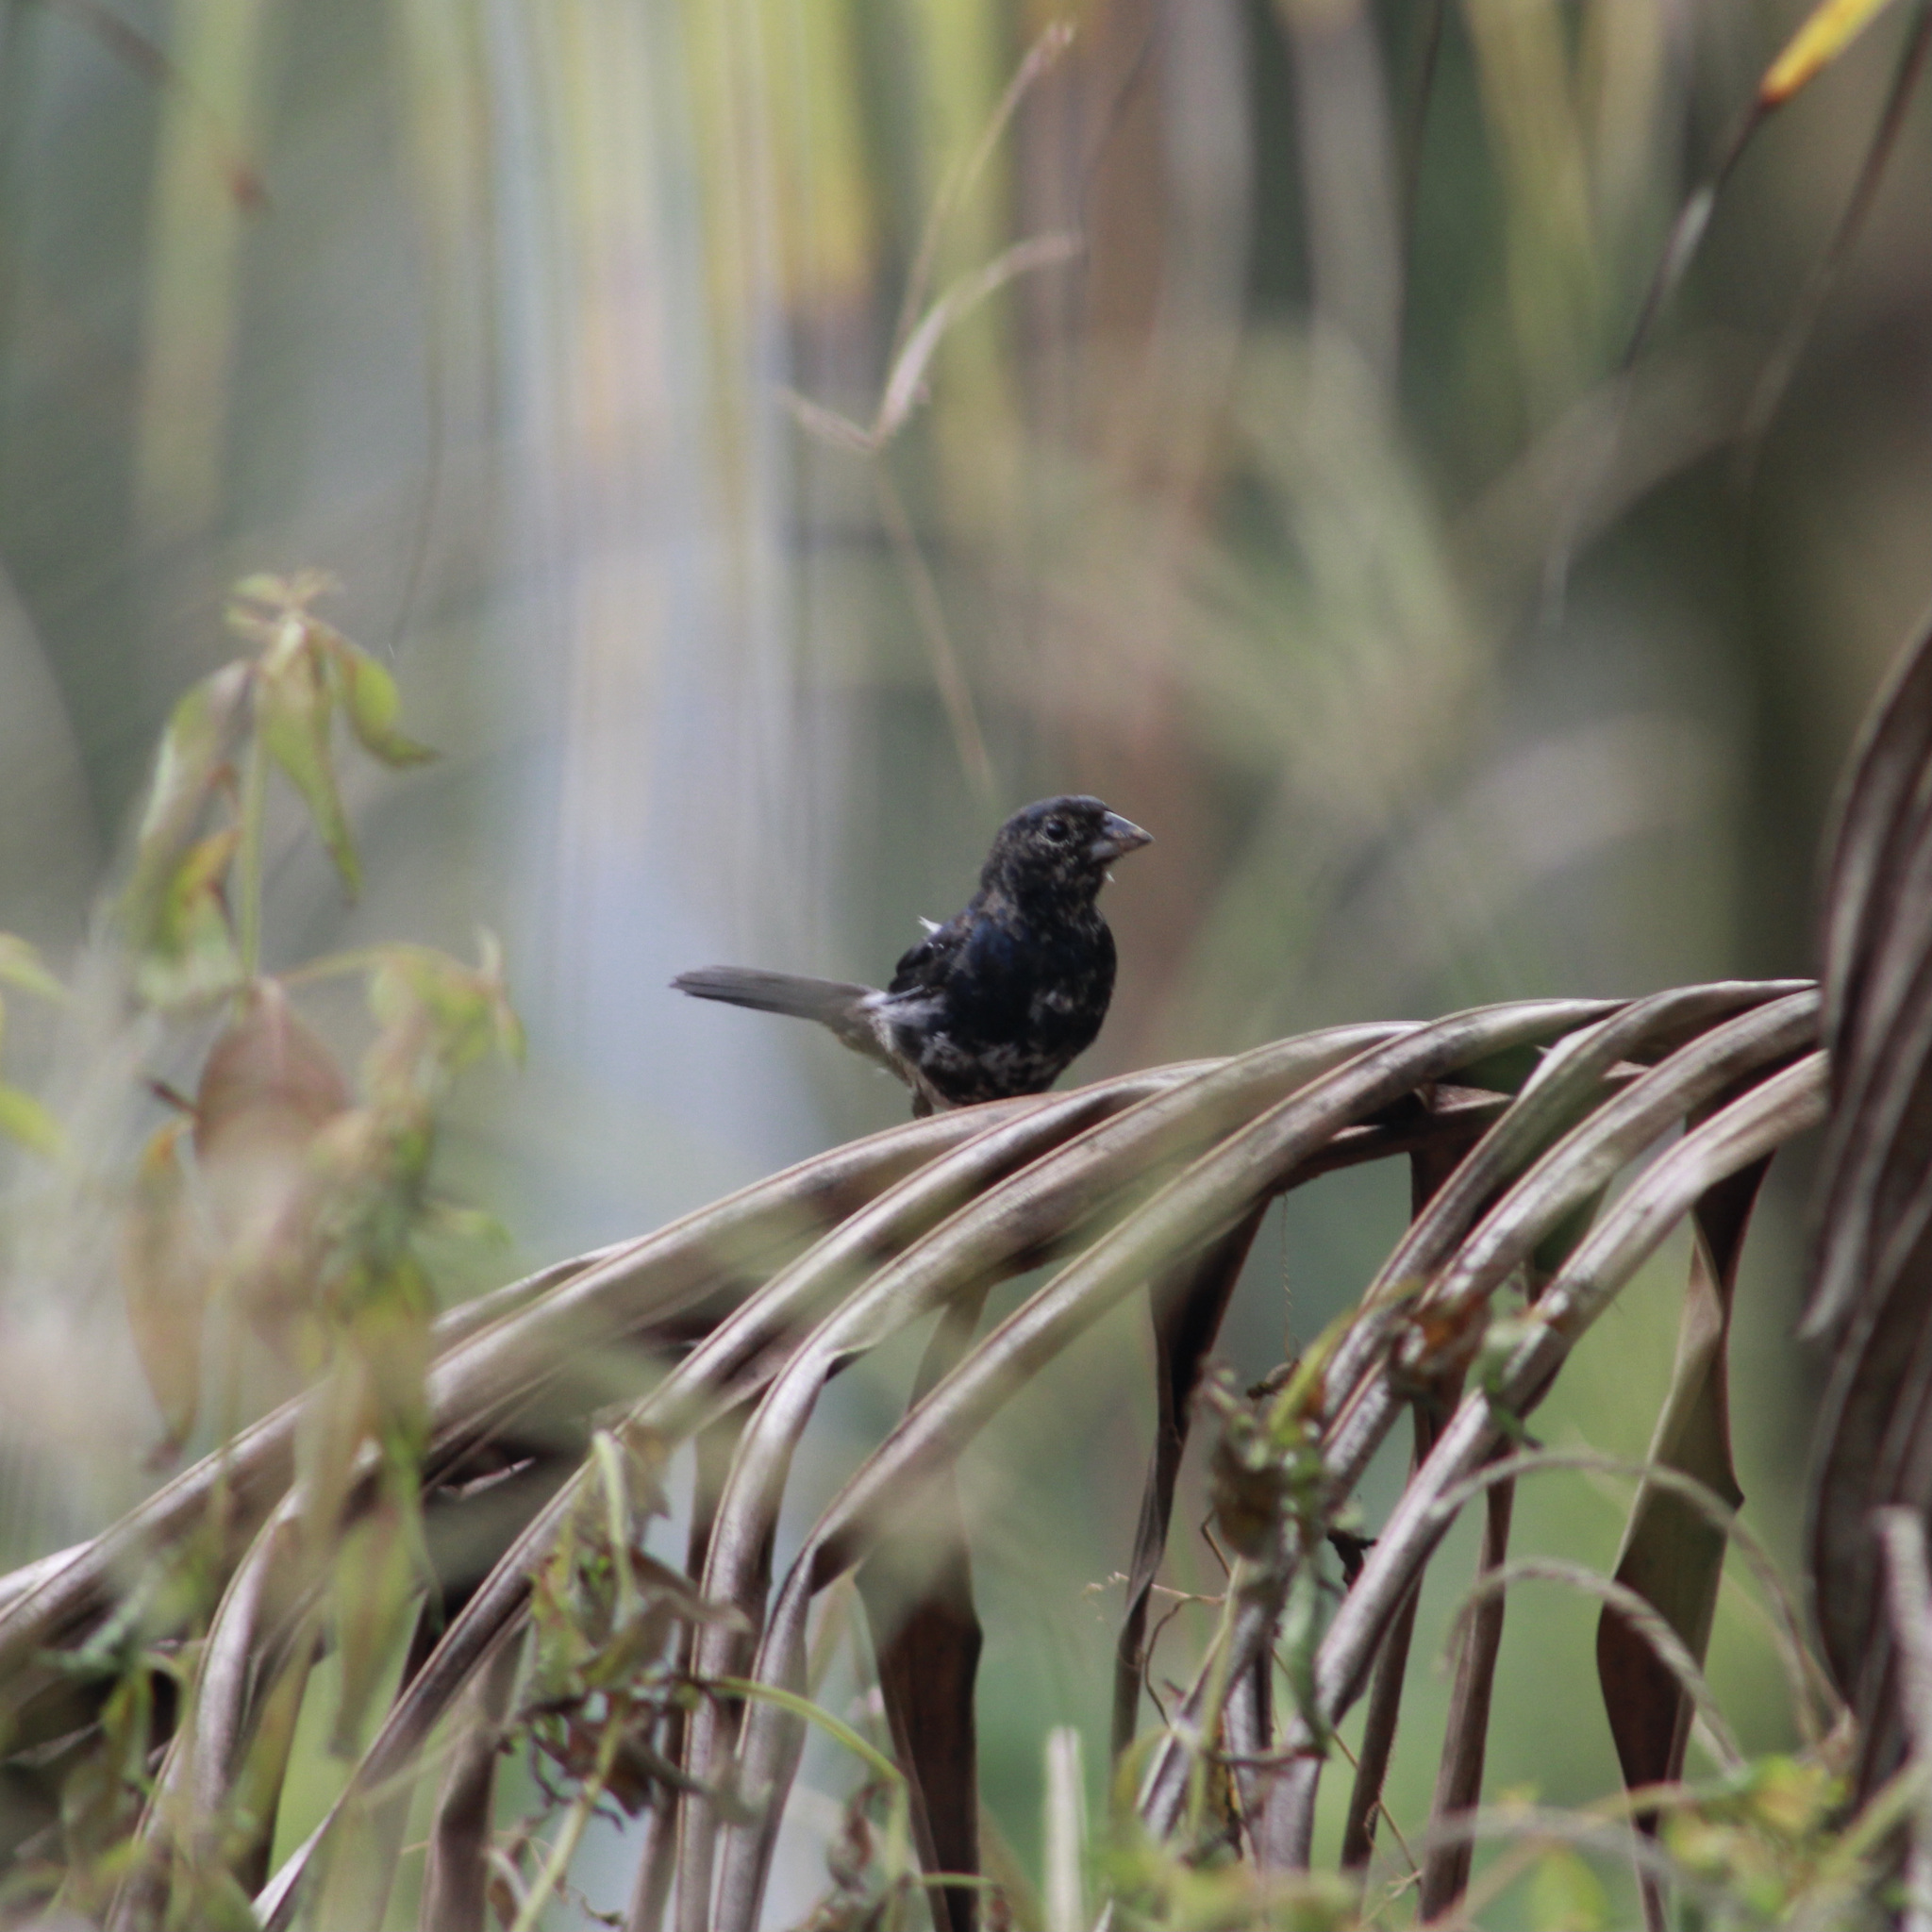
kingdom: Animalia
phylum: Chordata
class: Aves
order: Passeriformes
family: Thraupidae
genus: Volatinia
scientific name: Volatinia jacarina
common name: Blue-black grassquit
